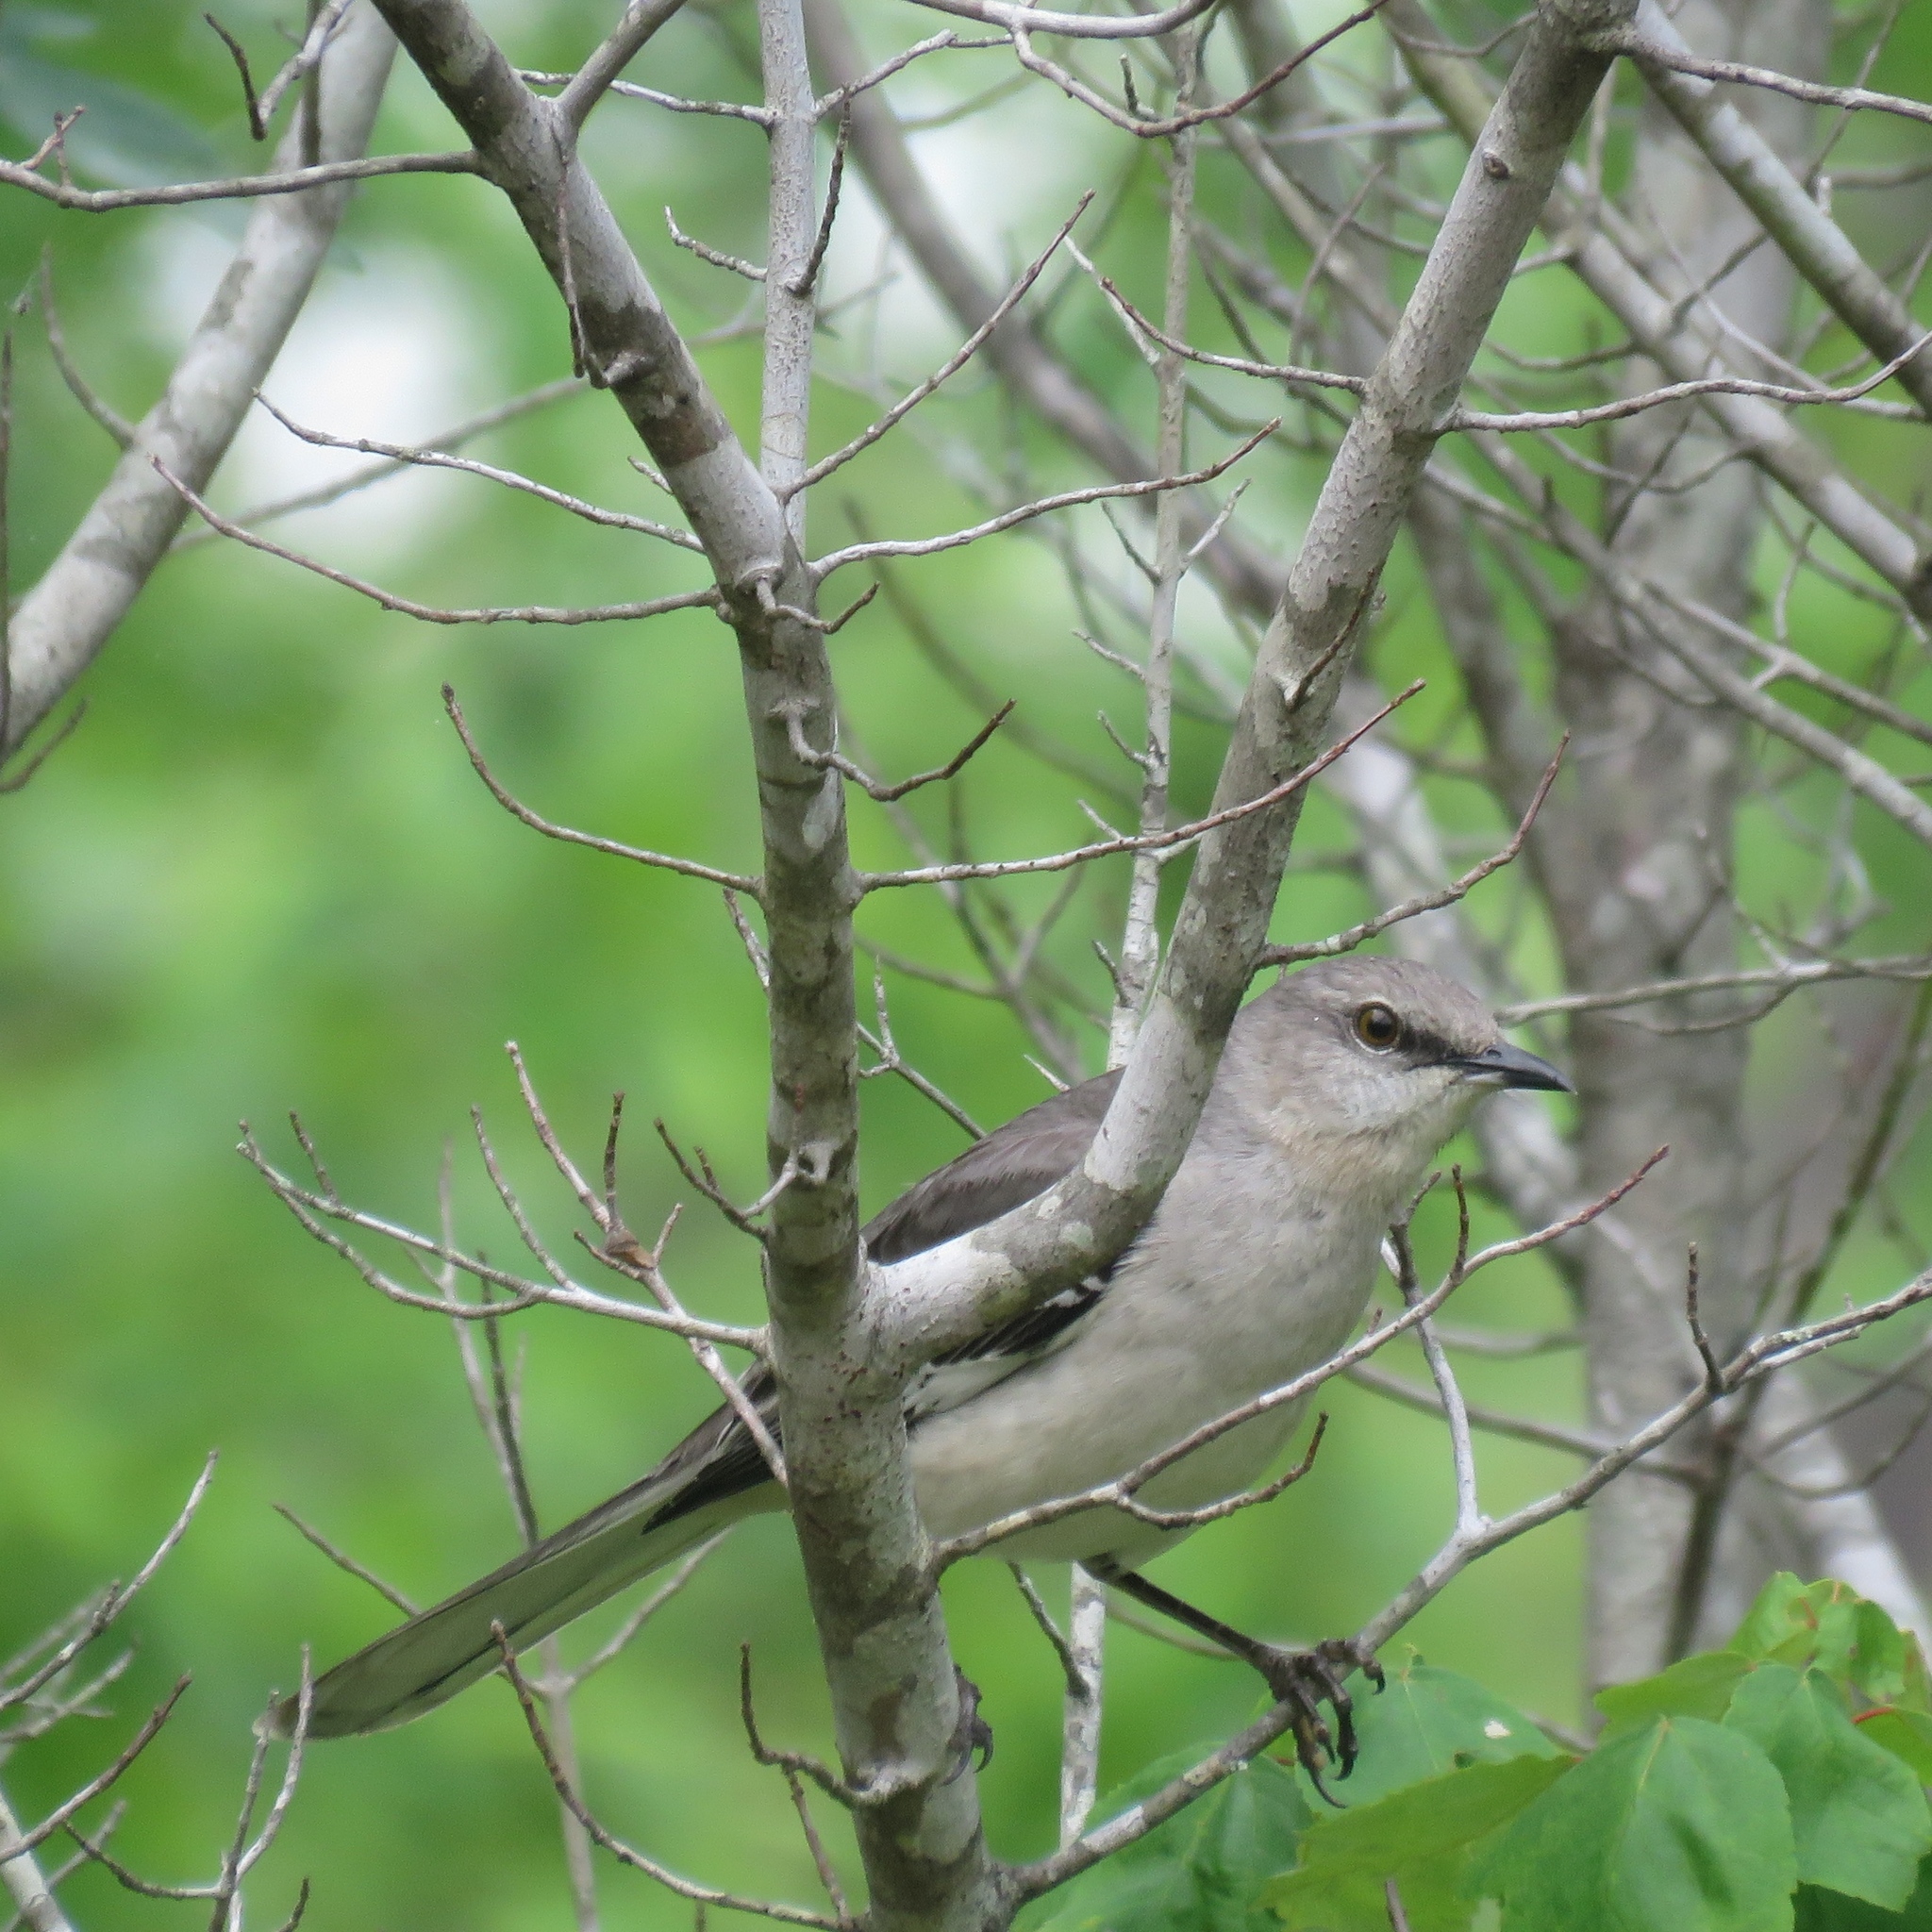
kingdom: Animalia
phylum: Chordata
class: Aves
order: Passeriformes
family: Mimidae
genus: Mimus
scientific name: Mimus polyglottos
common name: Northern mockingbird
